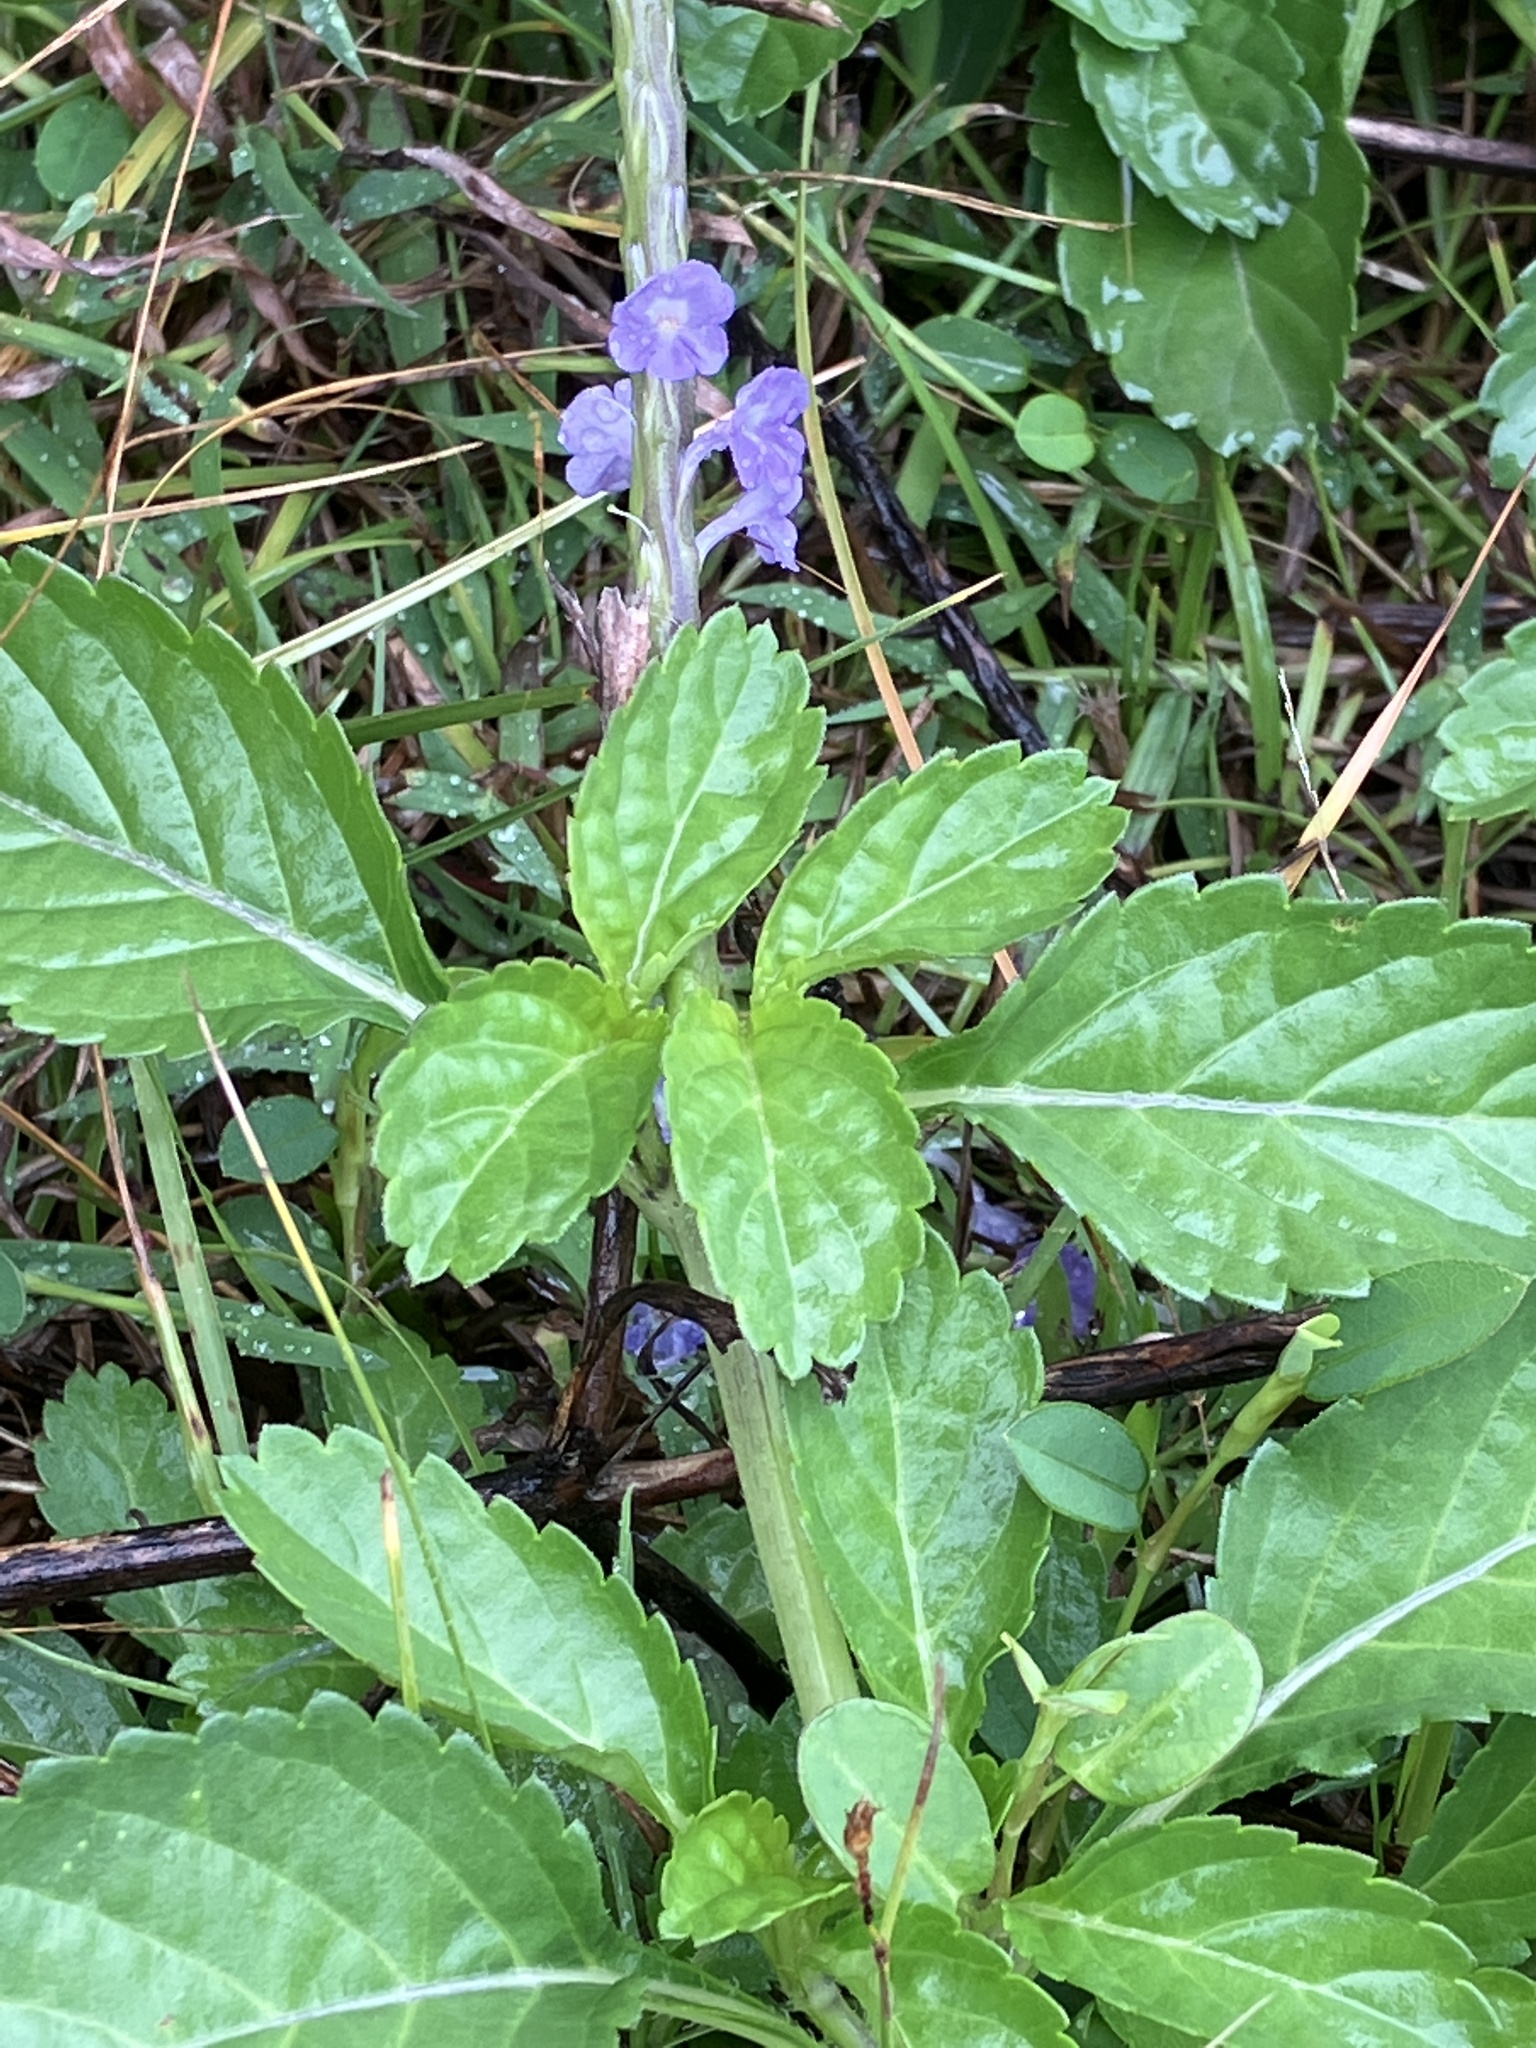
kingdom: Plantae
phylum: Tracheophyta
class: Magnoliopsida
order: Lamiales
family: Verbenaceae
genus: Stachytarpheta
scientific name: Stachytarpheta jamaicensis
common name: Light-blue snakeweed
